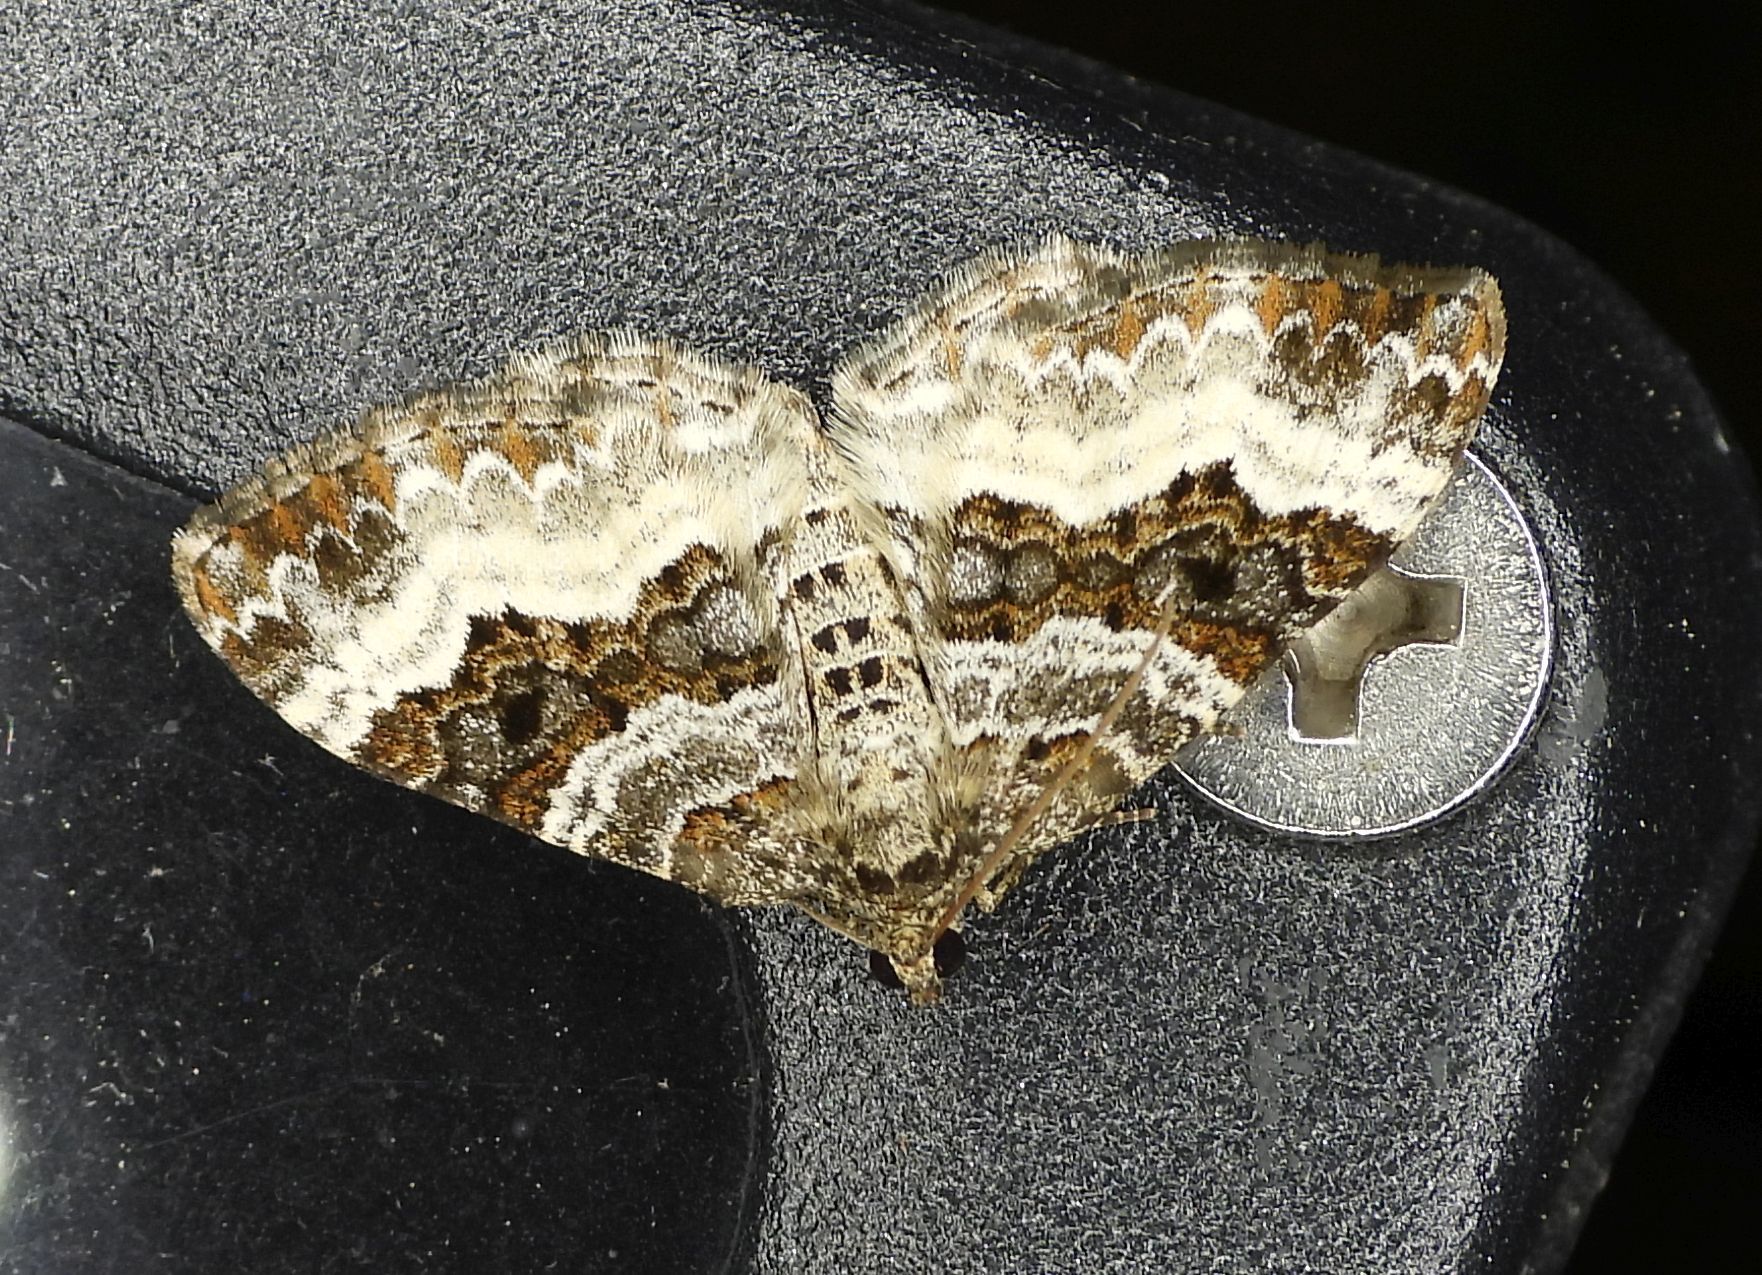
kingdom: Animalia
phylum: Arthropoda
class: Insecta
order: Lepidoptera
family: Geometridae
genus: Epirrhoe
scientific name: Epirrhoe alternata
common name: Common carpet
